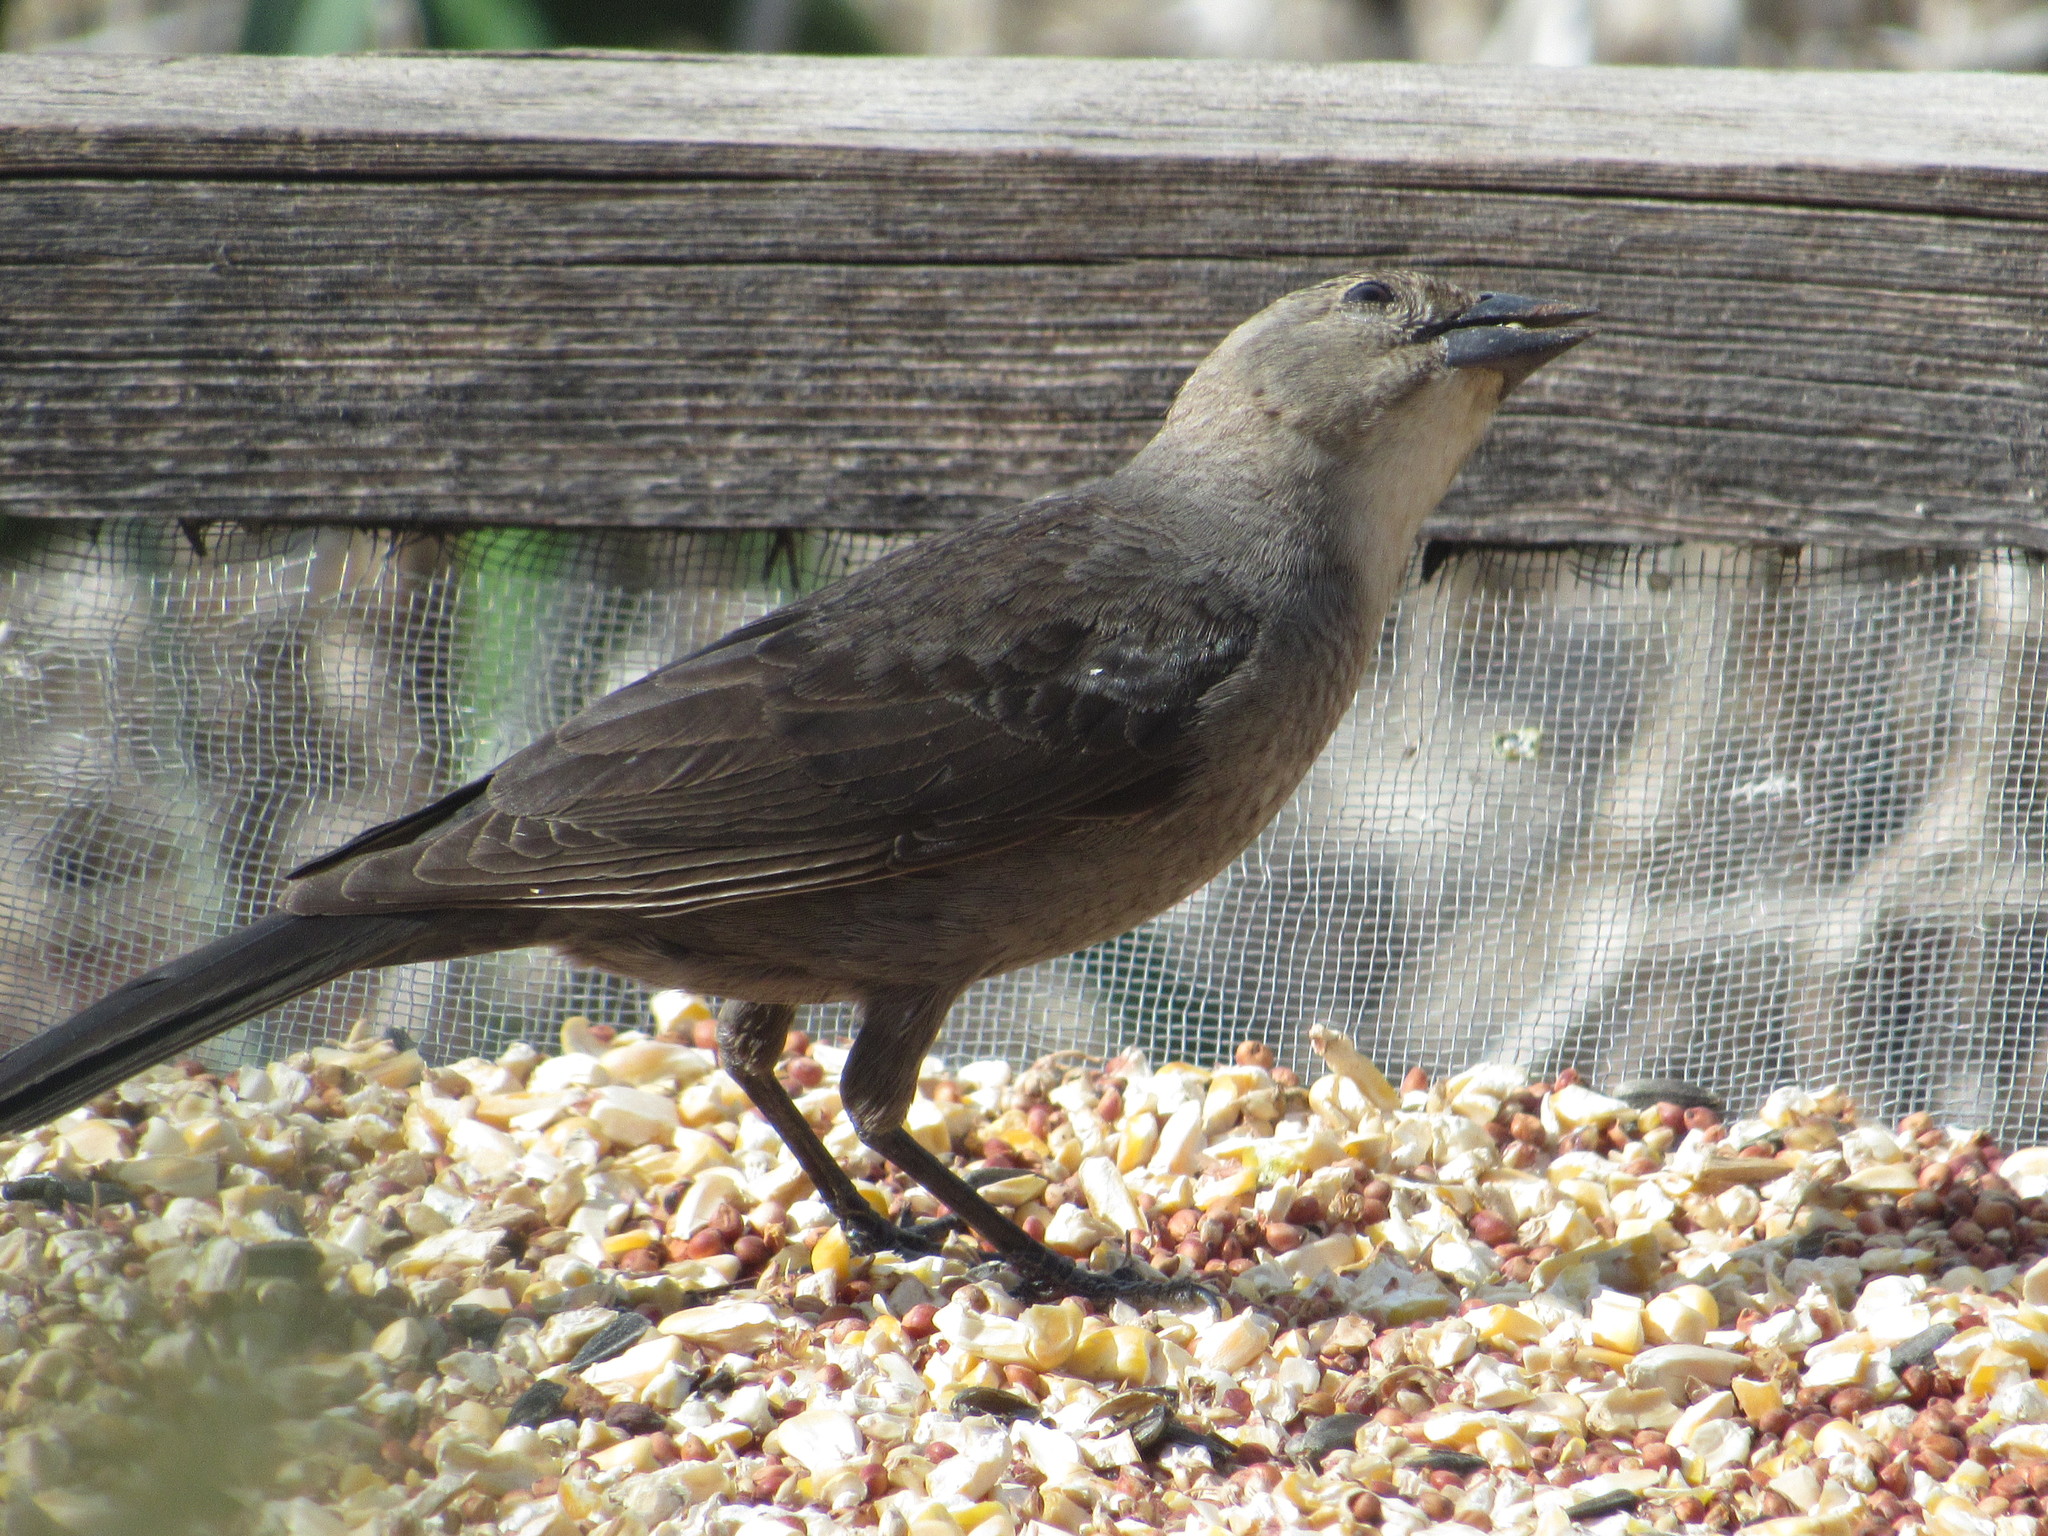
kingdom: Animalia
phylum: Chordata
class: Aves
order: Passeriformes
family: Icteridae
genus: Molothrus
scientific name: Molothrus ater
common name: Brown-headed cowbird
